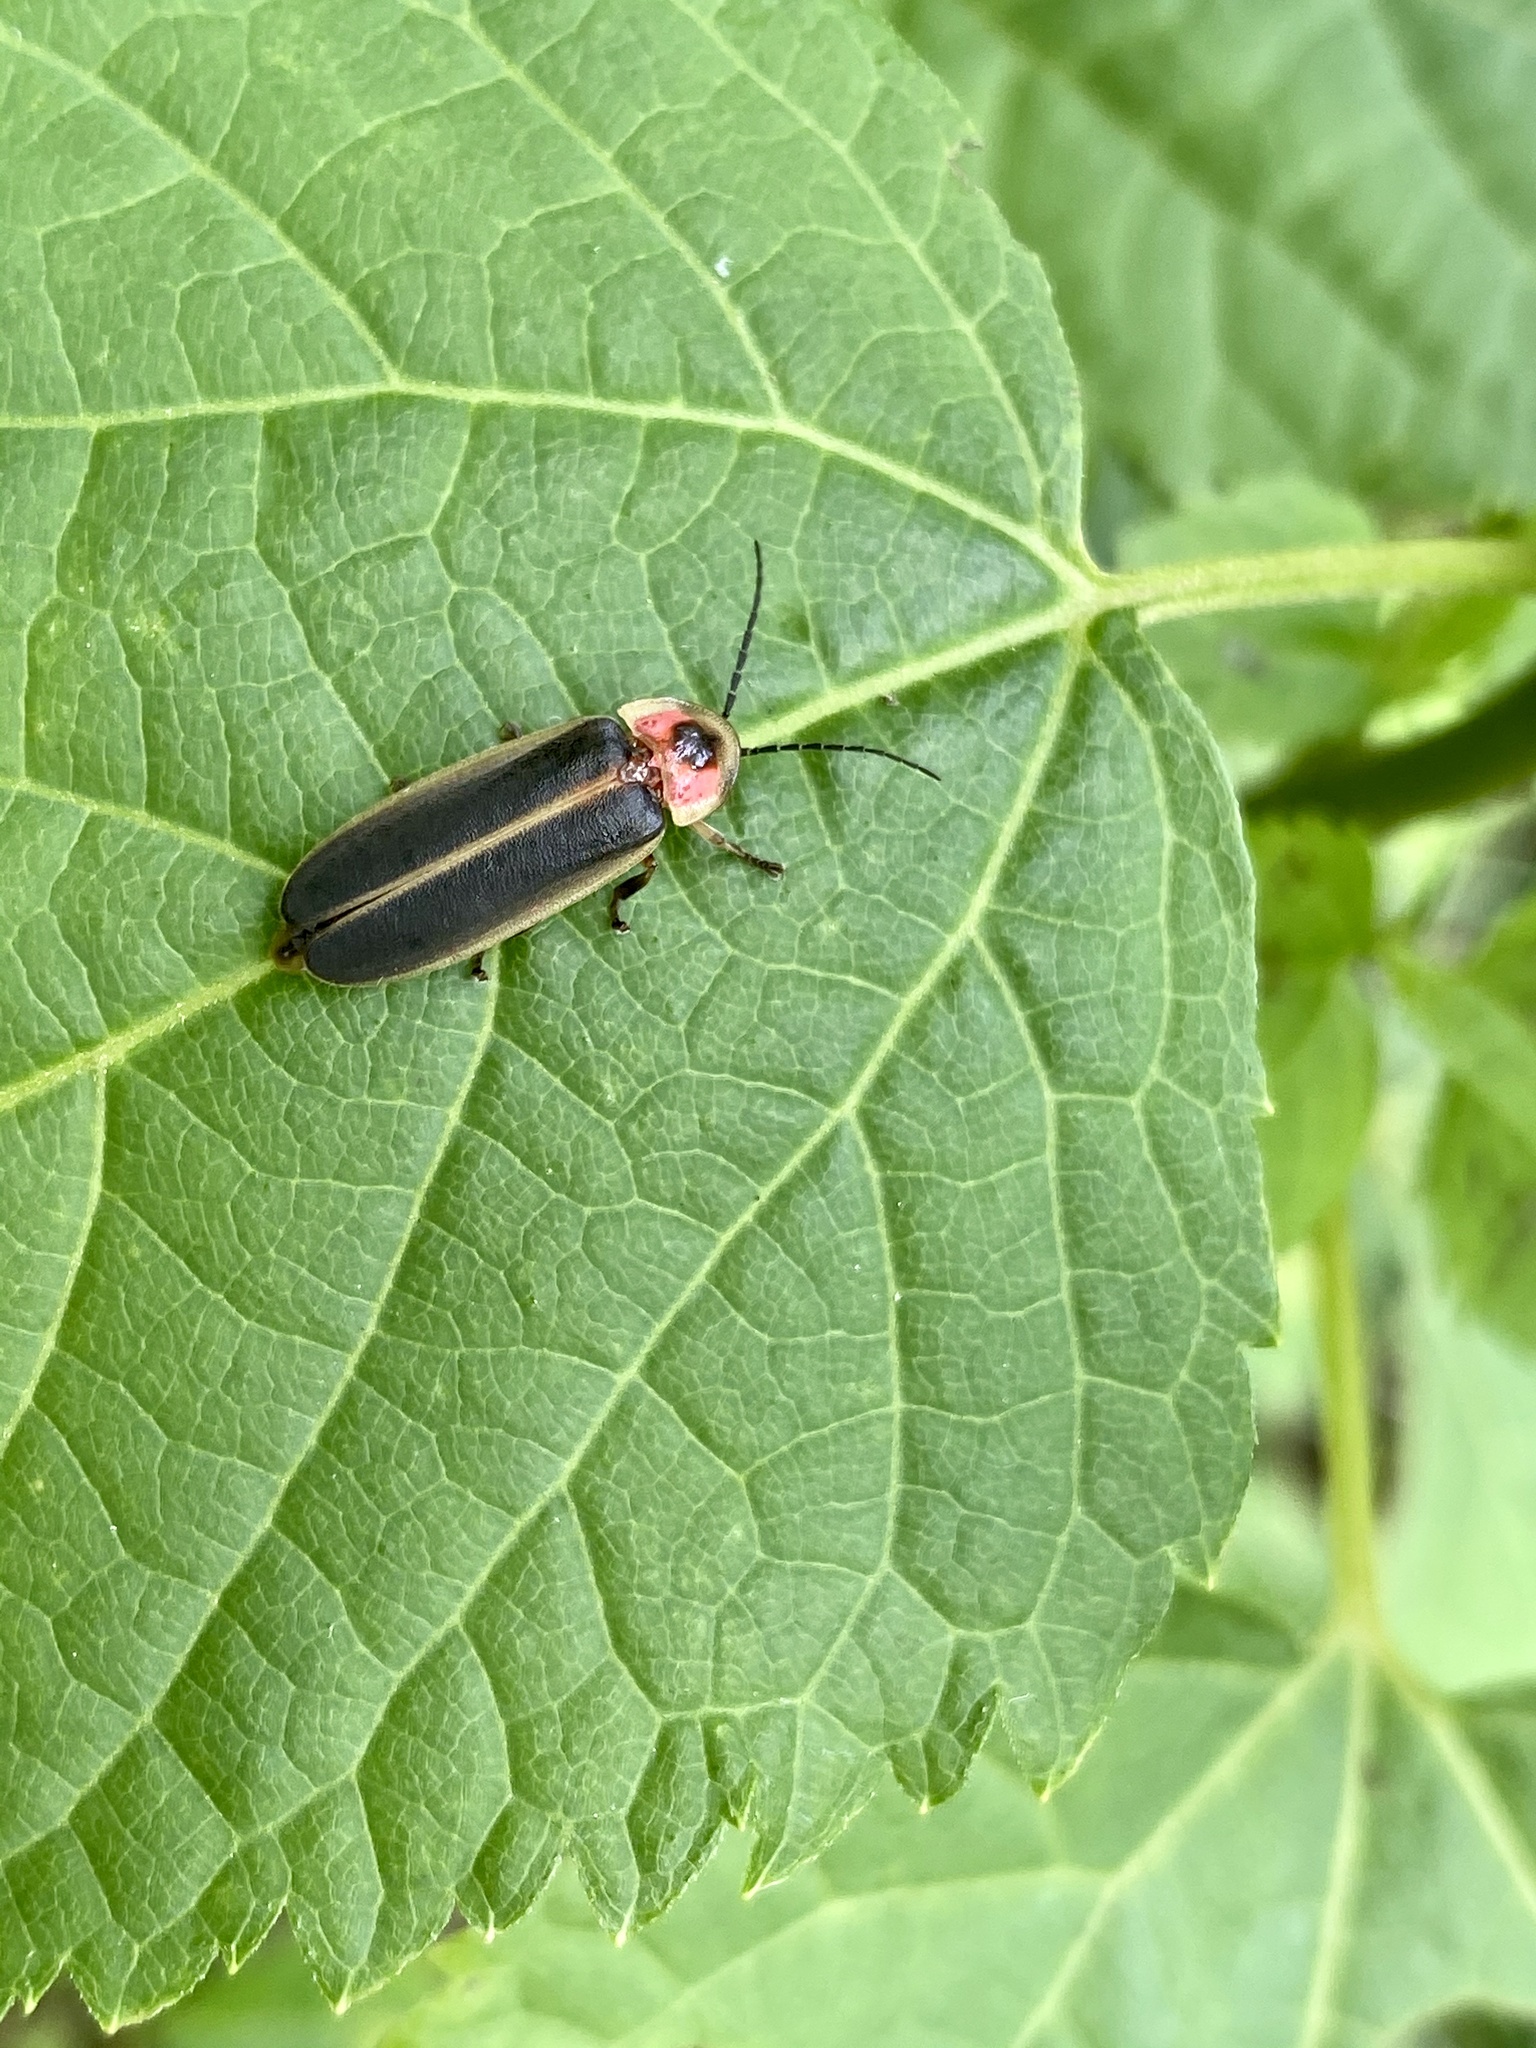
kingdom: Animalia
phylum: Arthropoda
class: Insecta
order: Coleoptera
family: Lampyridae
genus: Photinus
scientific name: Photinus pyralis
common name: Big dipper firefly
